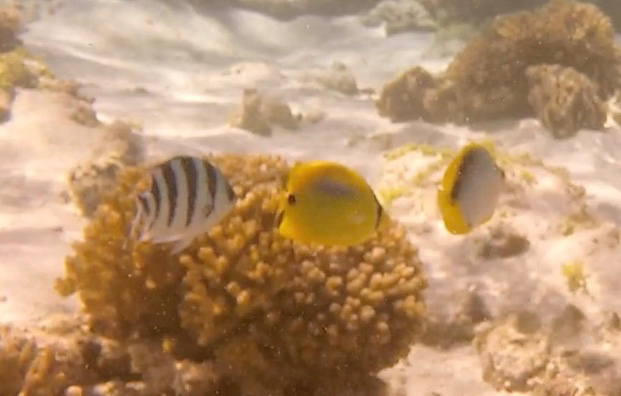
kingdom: Animalia
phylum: Chordata
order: Perciformes
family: Chaetodontidae
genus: Chaetodon
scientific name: Chaetodon plebeius
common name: Bluespot butterflyfish
